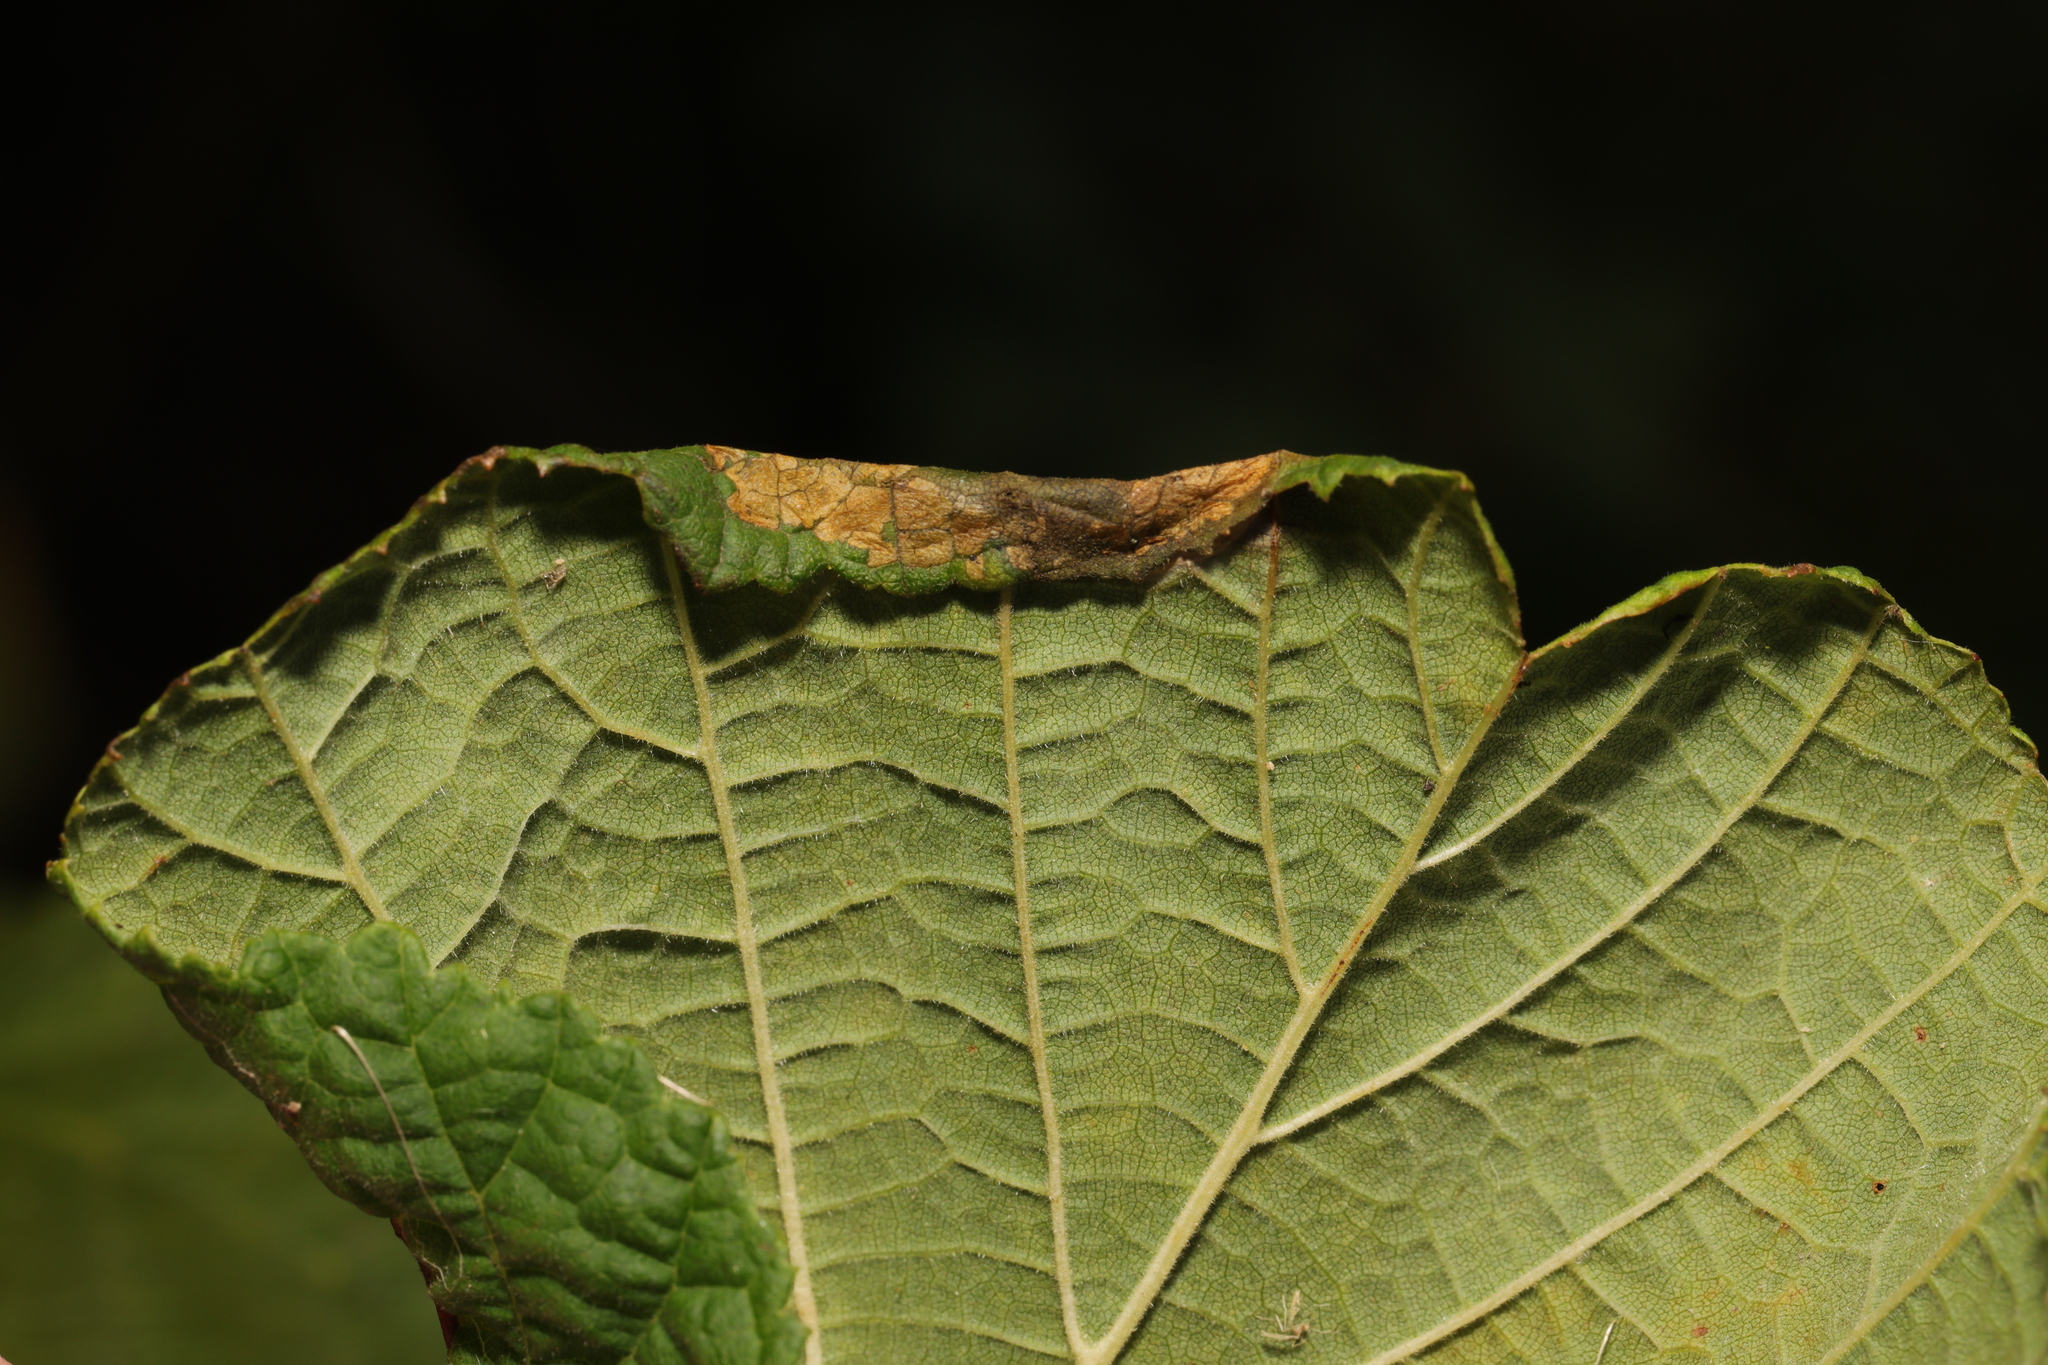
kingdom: Animalia
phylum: Arthropoda
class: Insecta
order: Lepidoptera
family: Gracillariidae
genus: Parornix
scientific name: Parornix devoniella
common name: Hazel slender
